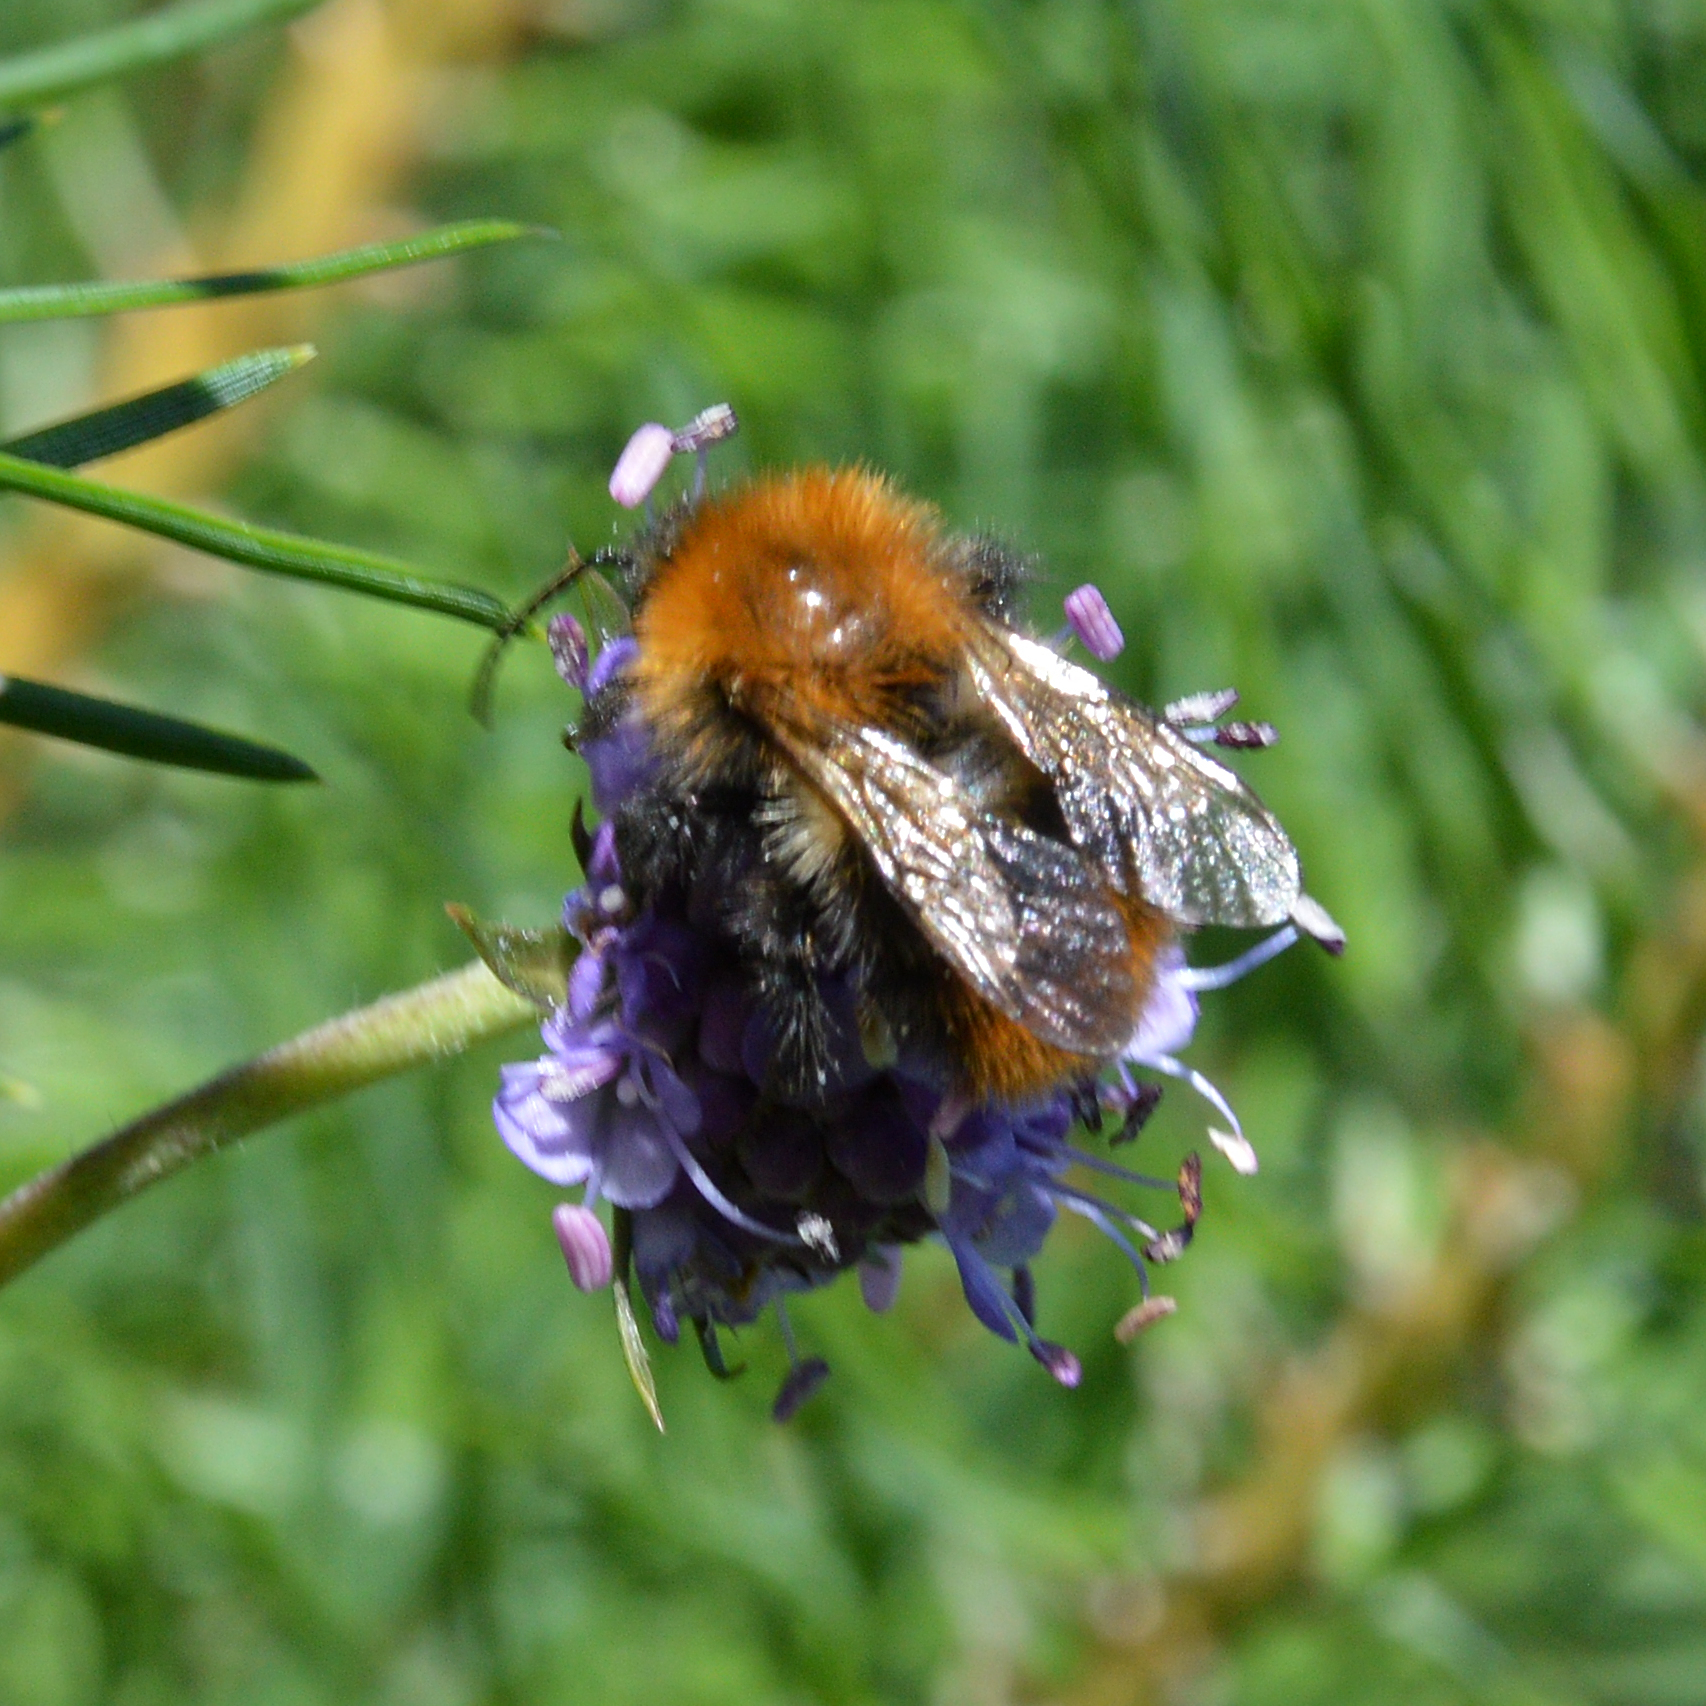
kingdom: Animalia
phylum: Arthropoda
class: Insecta
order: Hymenoptera
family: Apidae
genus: Bombus
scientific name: Bombus pascuorum
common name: Common carder bee
